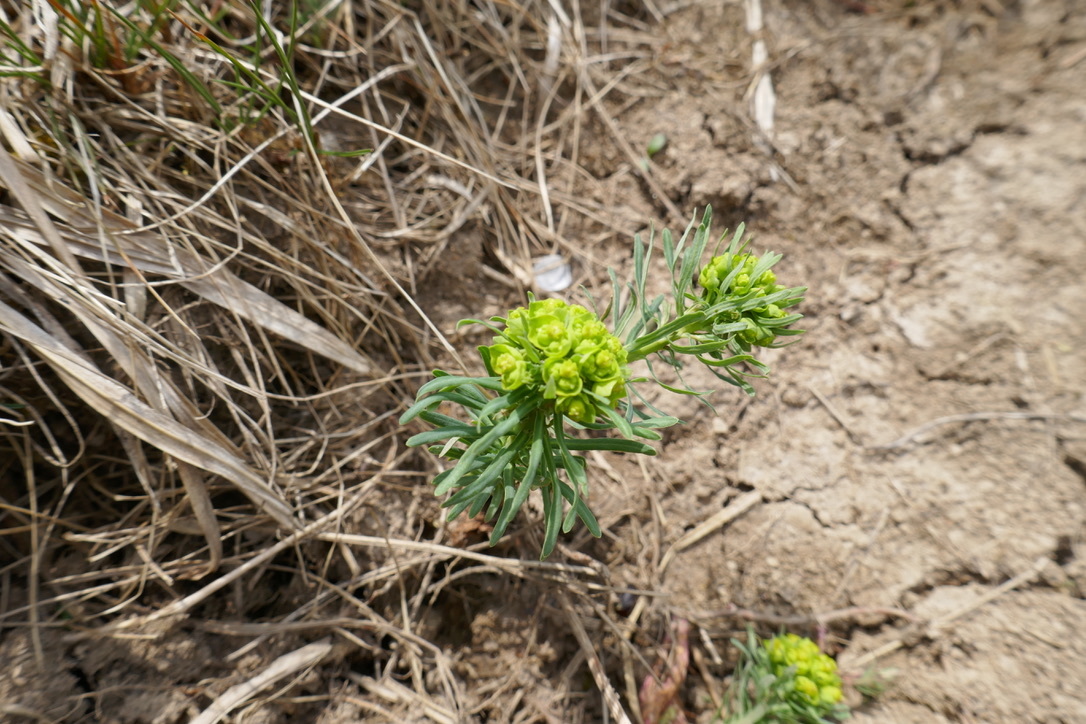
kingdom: Plantae
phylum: Tracheophyta
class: Magnoliopsida
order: Malpighiales
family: Euphorbiaceae
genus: Euphorbia
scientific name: Euphorbia cyparissias
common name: Cypress spurge
